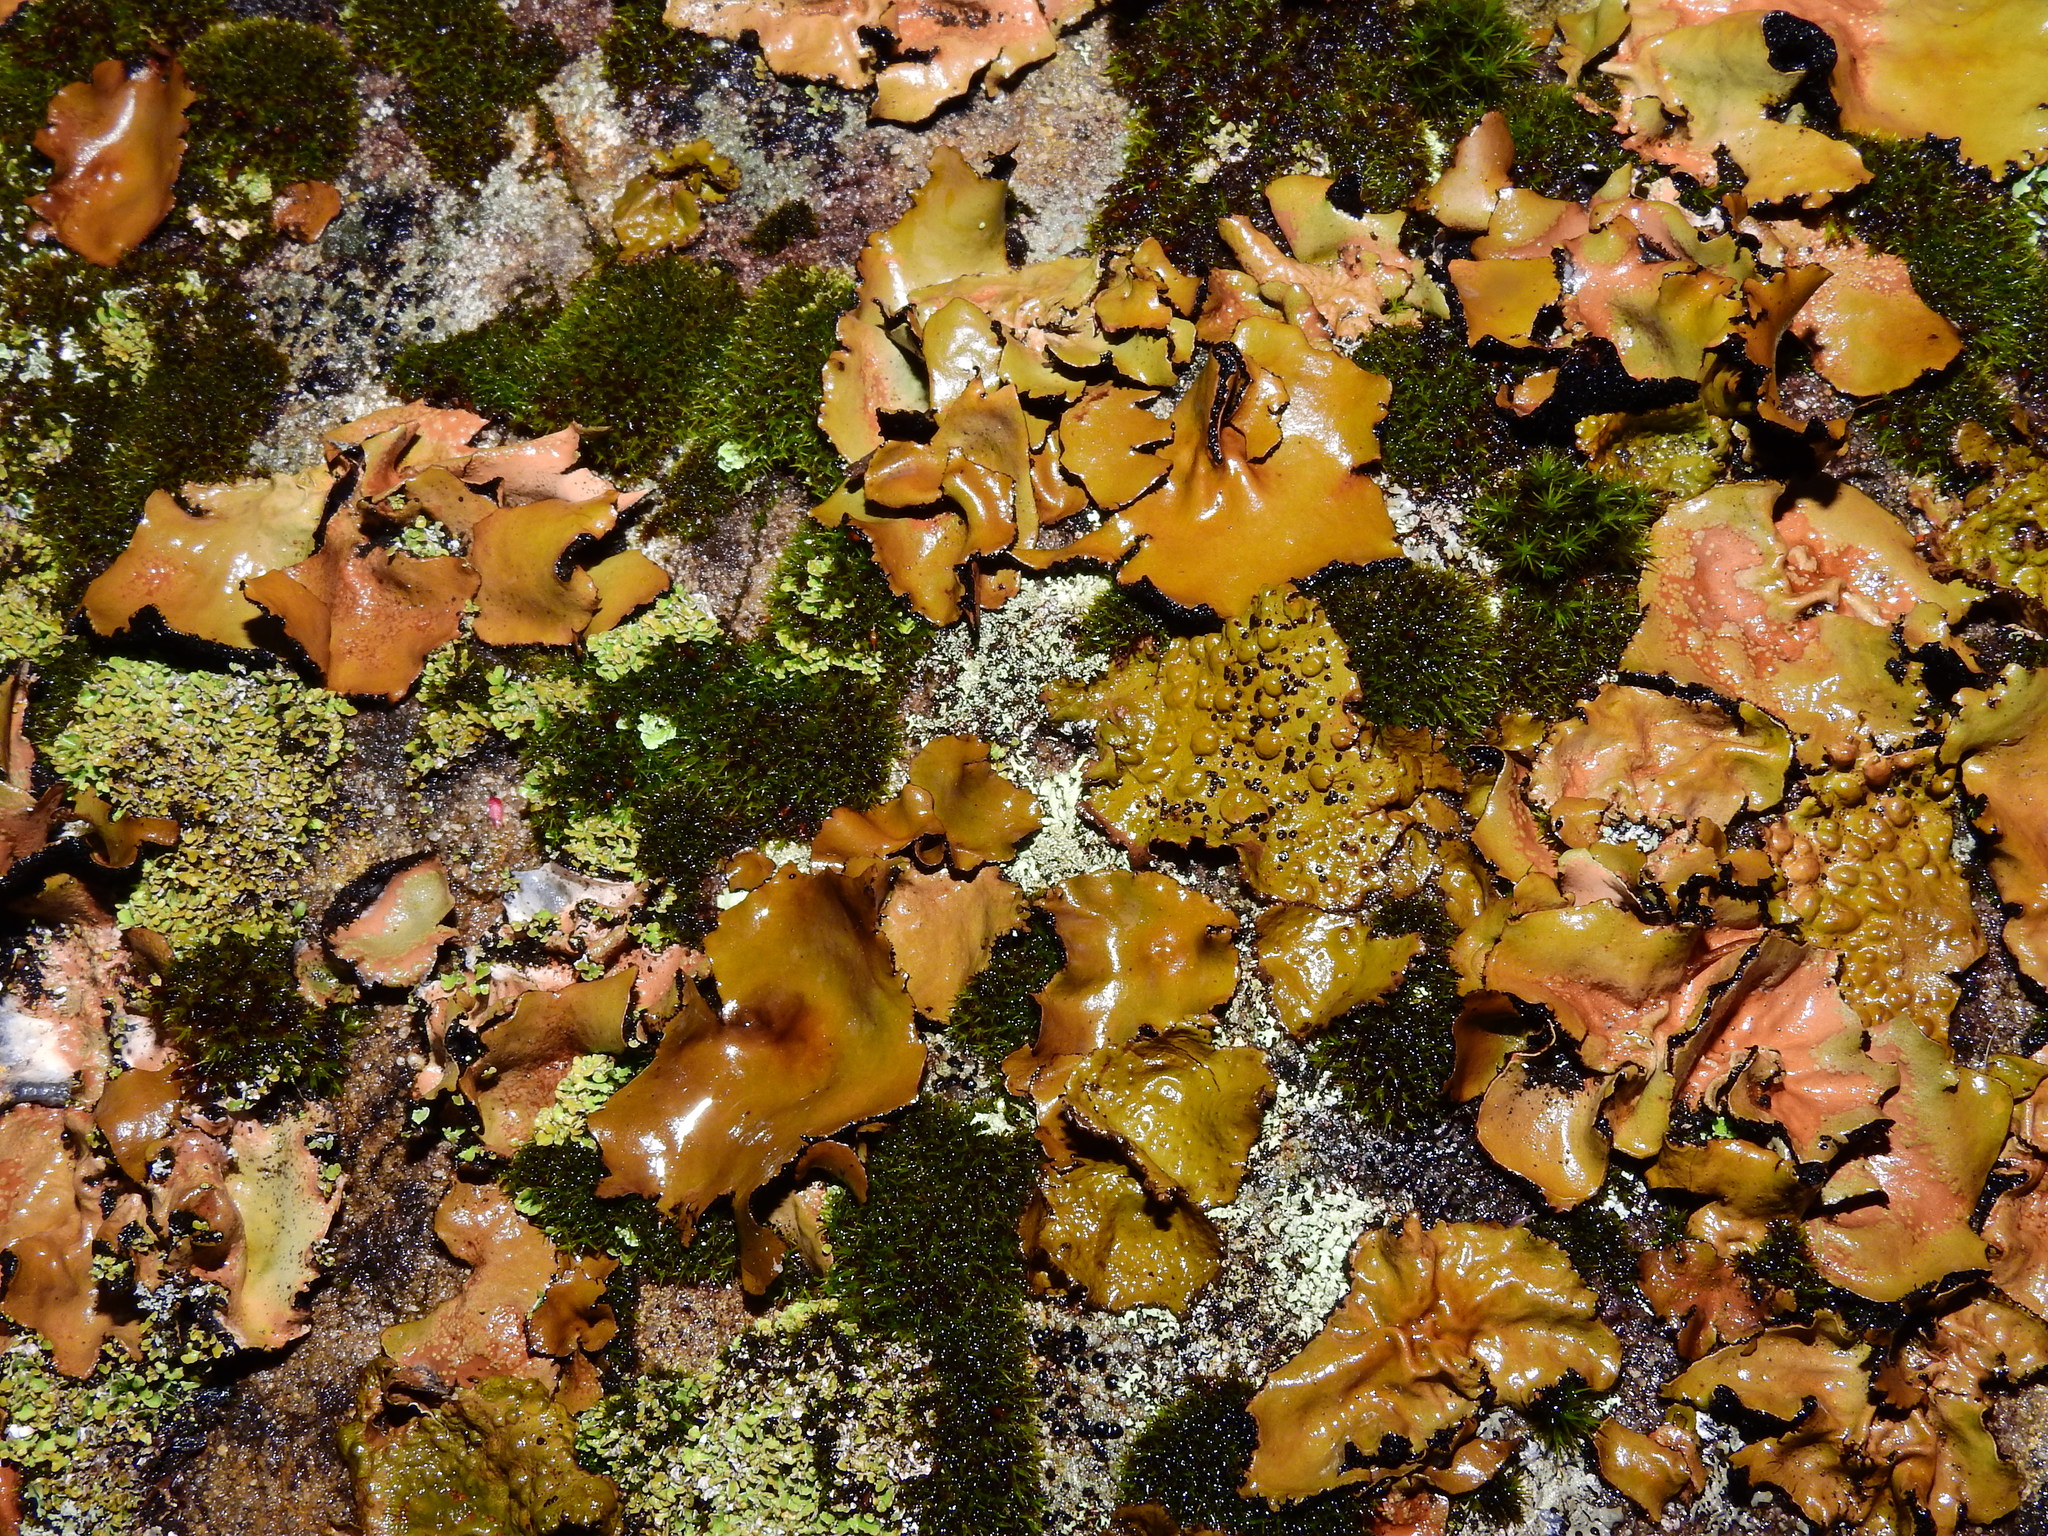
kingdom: Fungi
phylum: Ascomycota
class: Lecanoromycetes
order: Umbilicariales
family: Umbilicariaceae
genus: Umbilicaria
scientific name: Umbilicaria mammulata
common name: Smooth rock tripe
